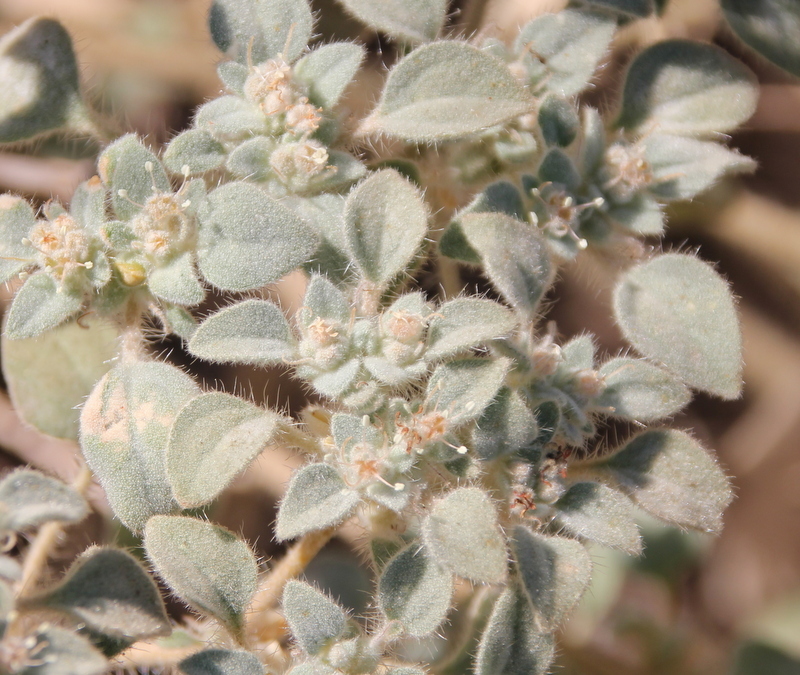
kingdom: Plantae
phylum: Tracheophyta
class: Magnoliopsida
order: Malpighiales
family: Euphorbiaceae
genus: Croton
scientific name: Croton setiger
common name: Dove weed
